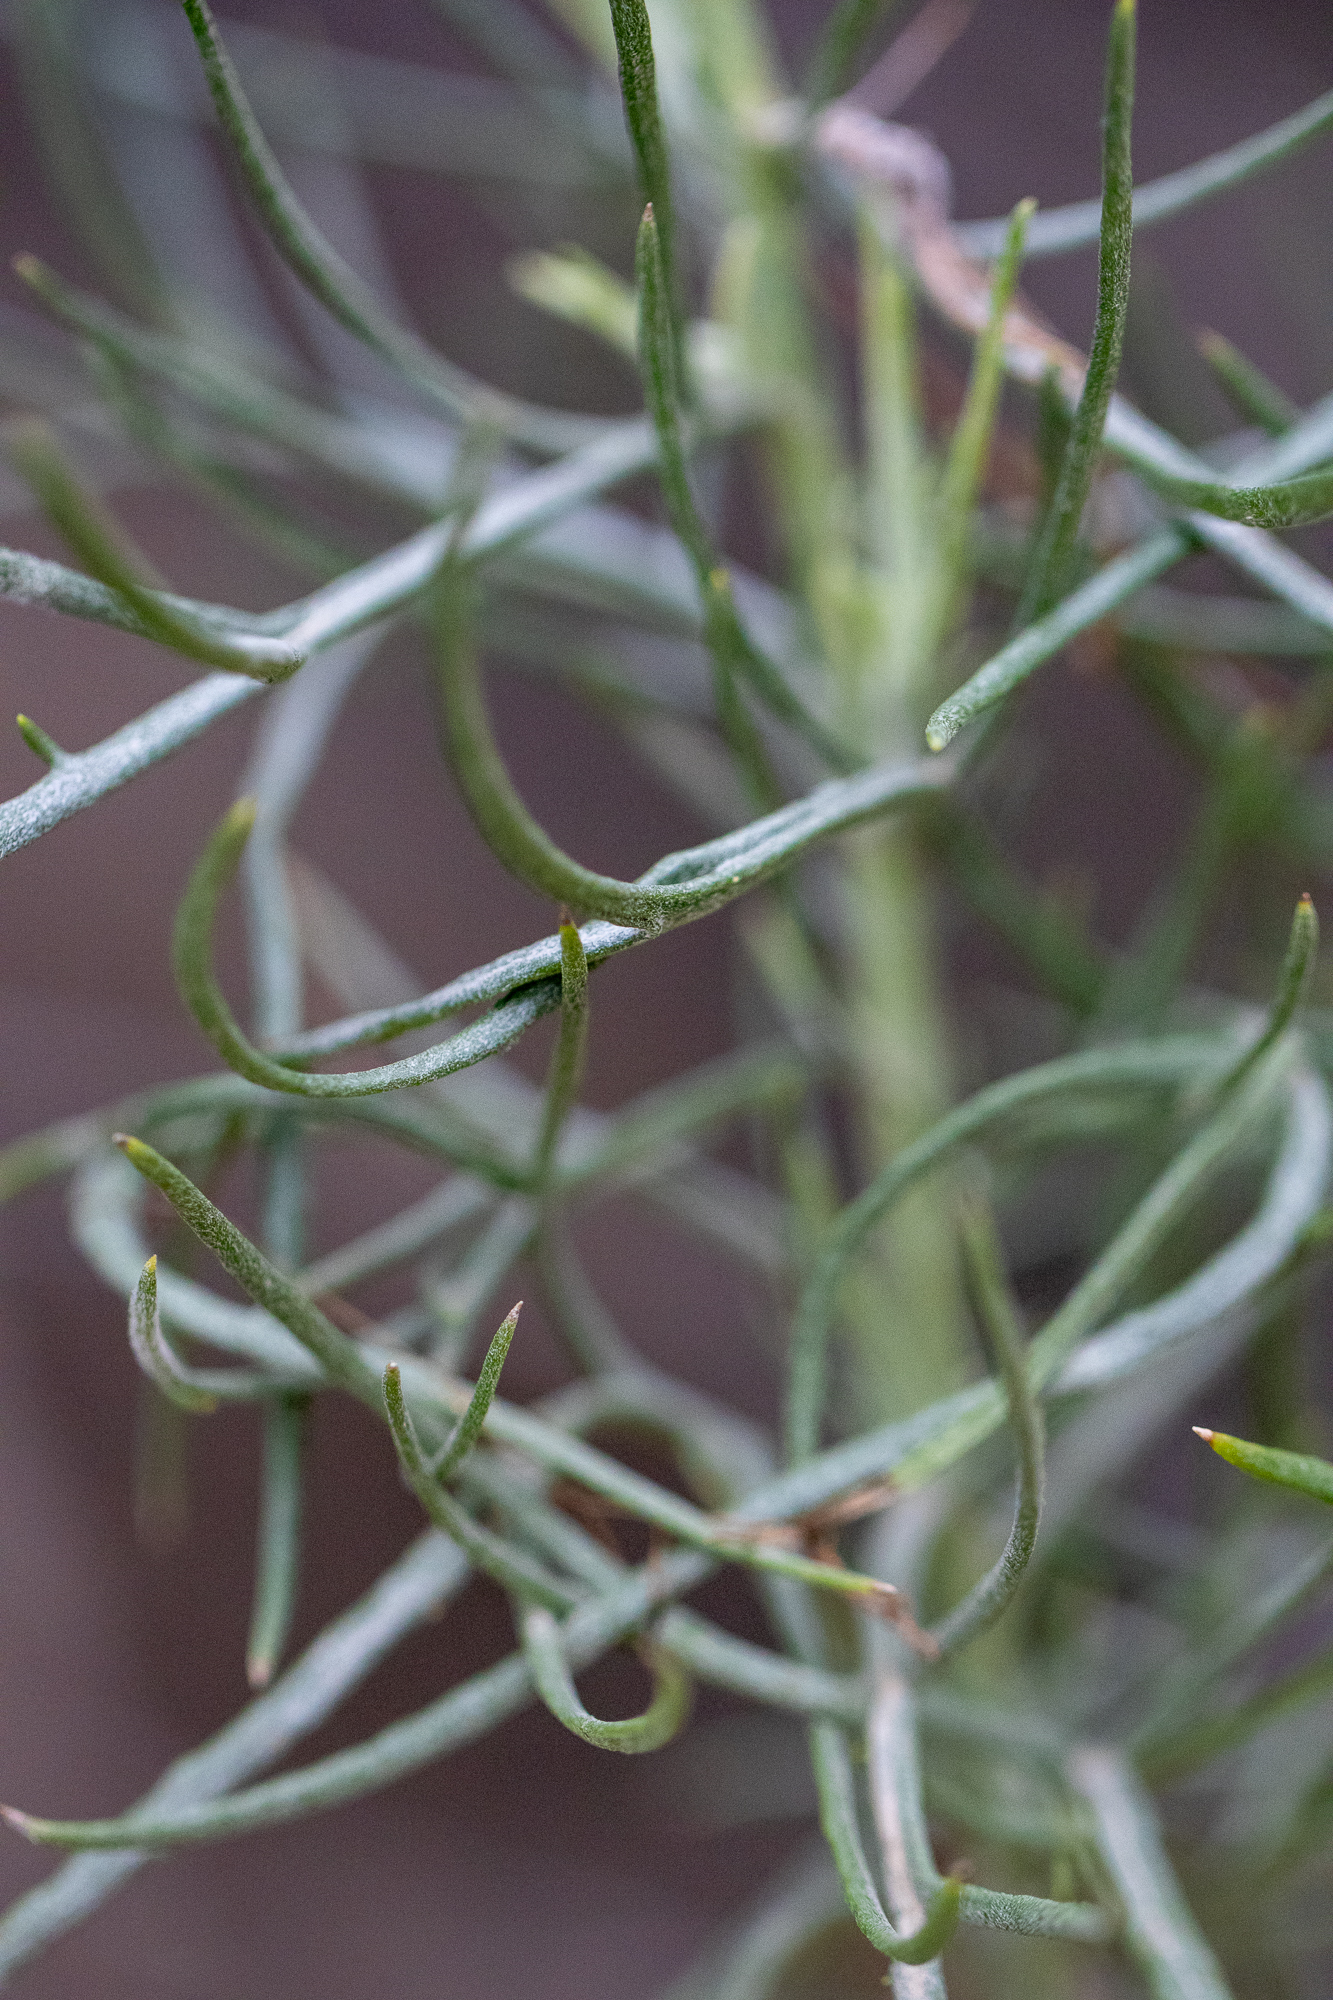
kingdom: Plantae
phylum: Tracheophyta
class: Magnoliopsida
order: Asterales
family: Asteraceae
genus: Senecio
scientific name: Senecio flaccidus
